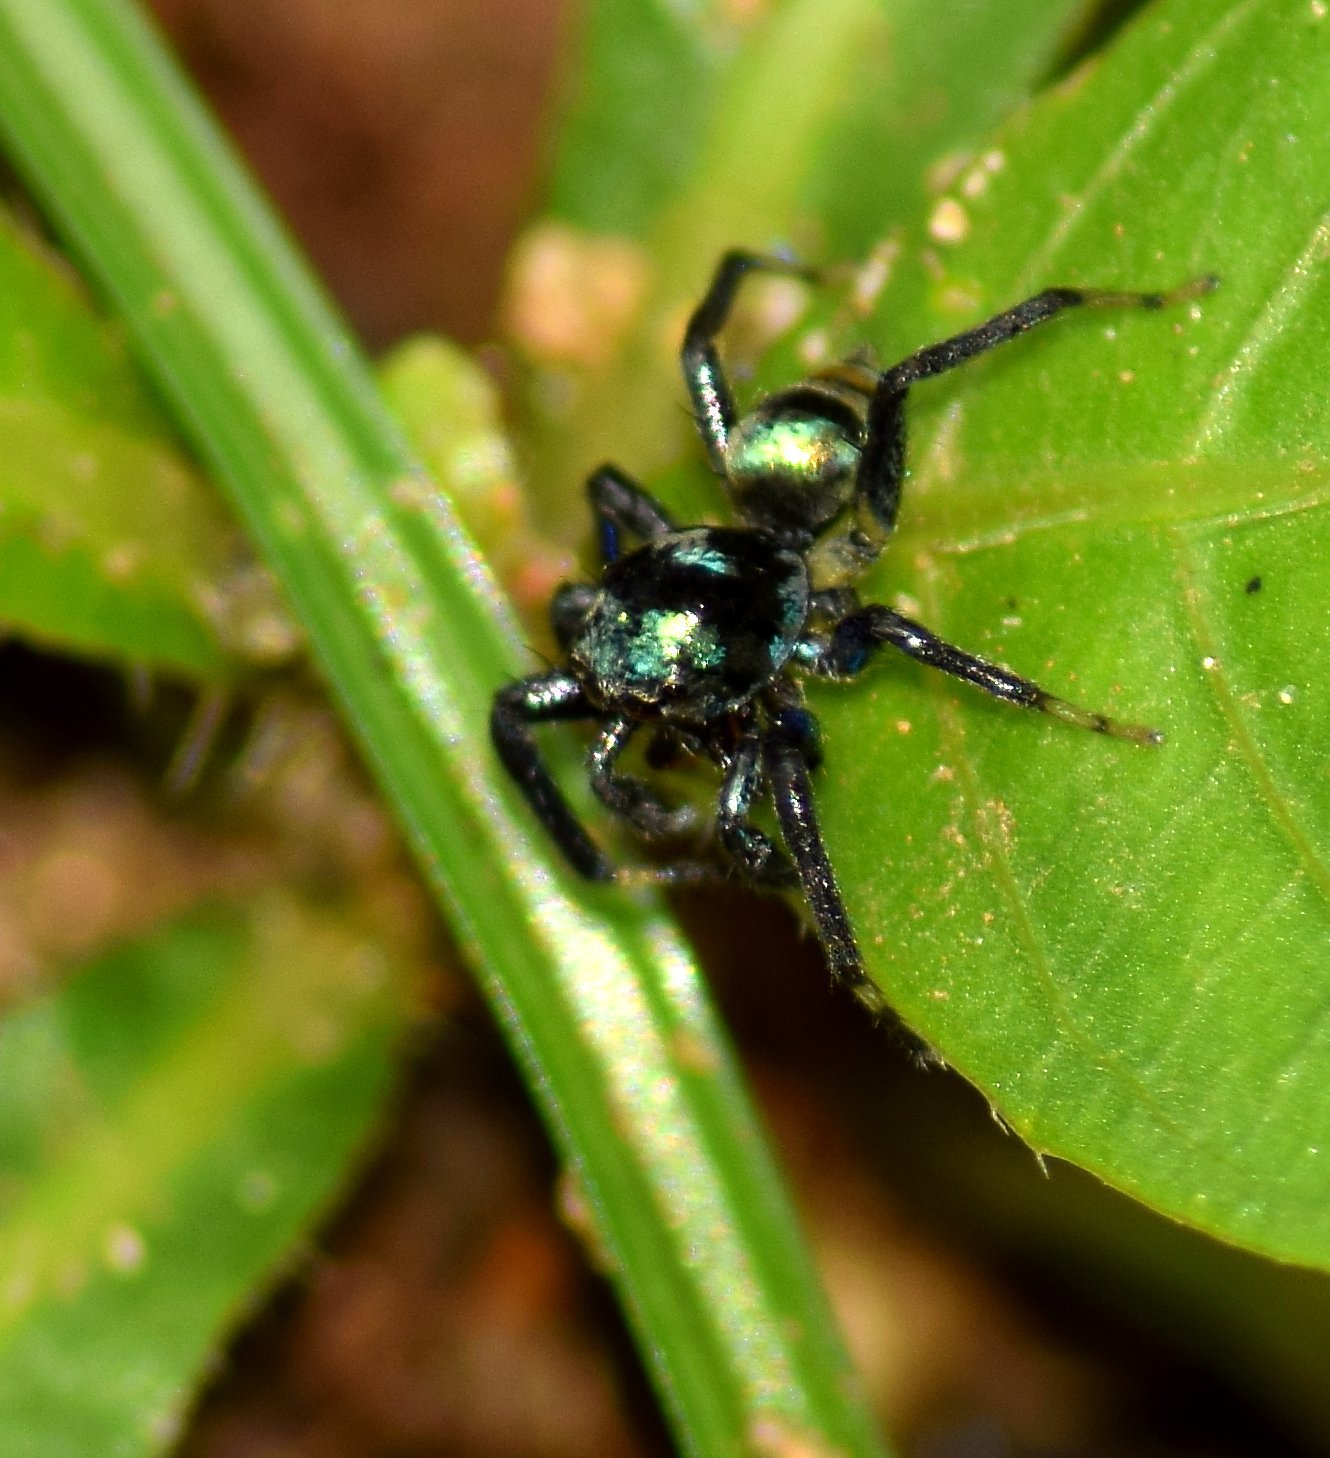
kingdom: Animalia
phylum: Arthropoda
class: Arachnida
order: Araneae
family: Salticidae
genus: Phintella
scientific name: Phintella vittata
